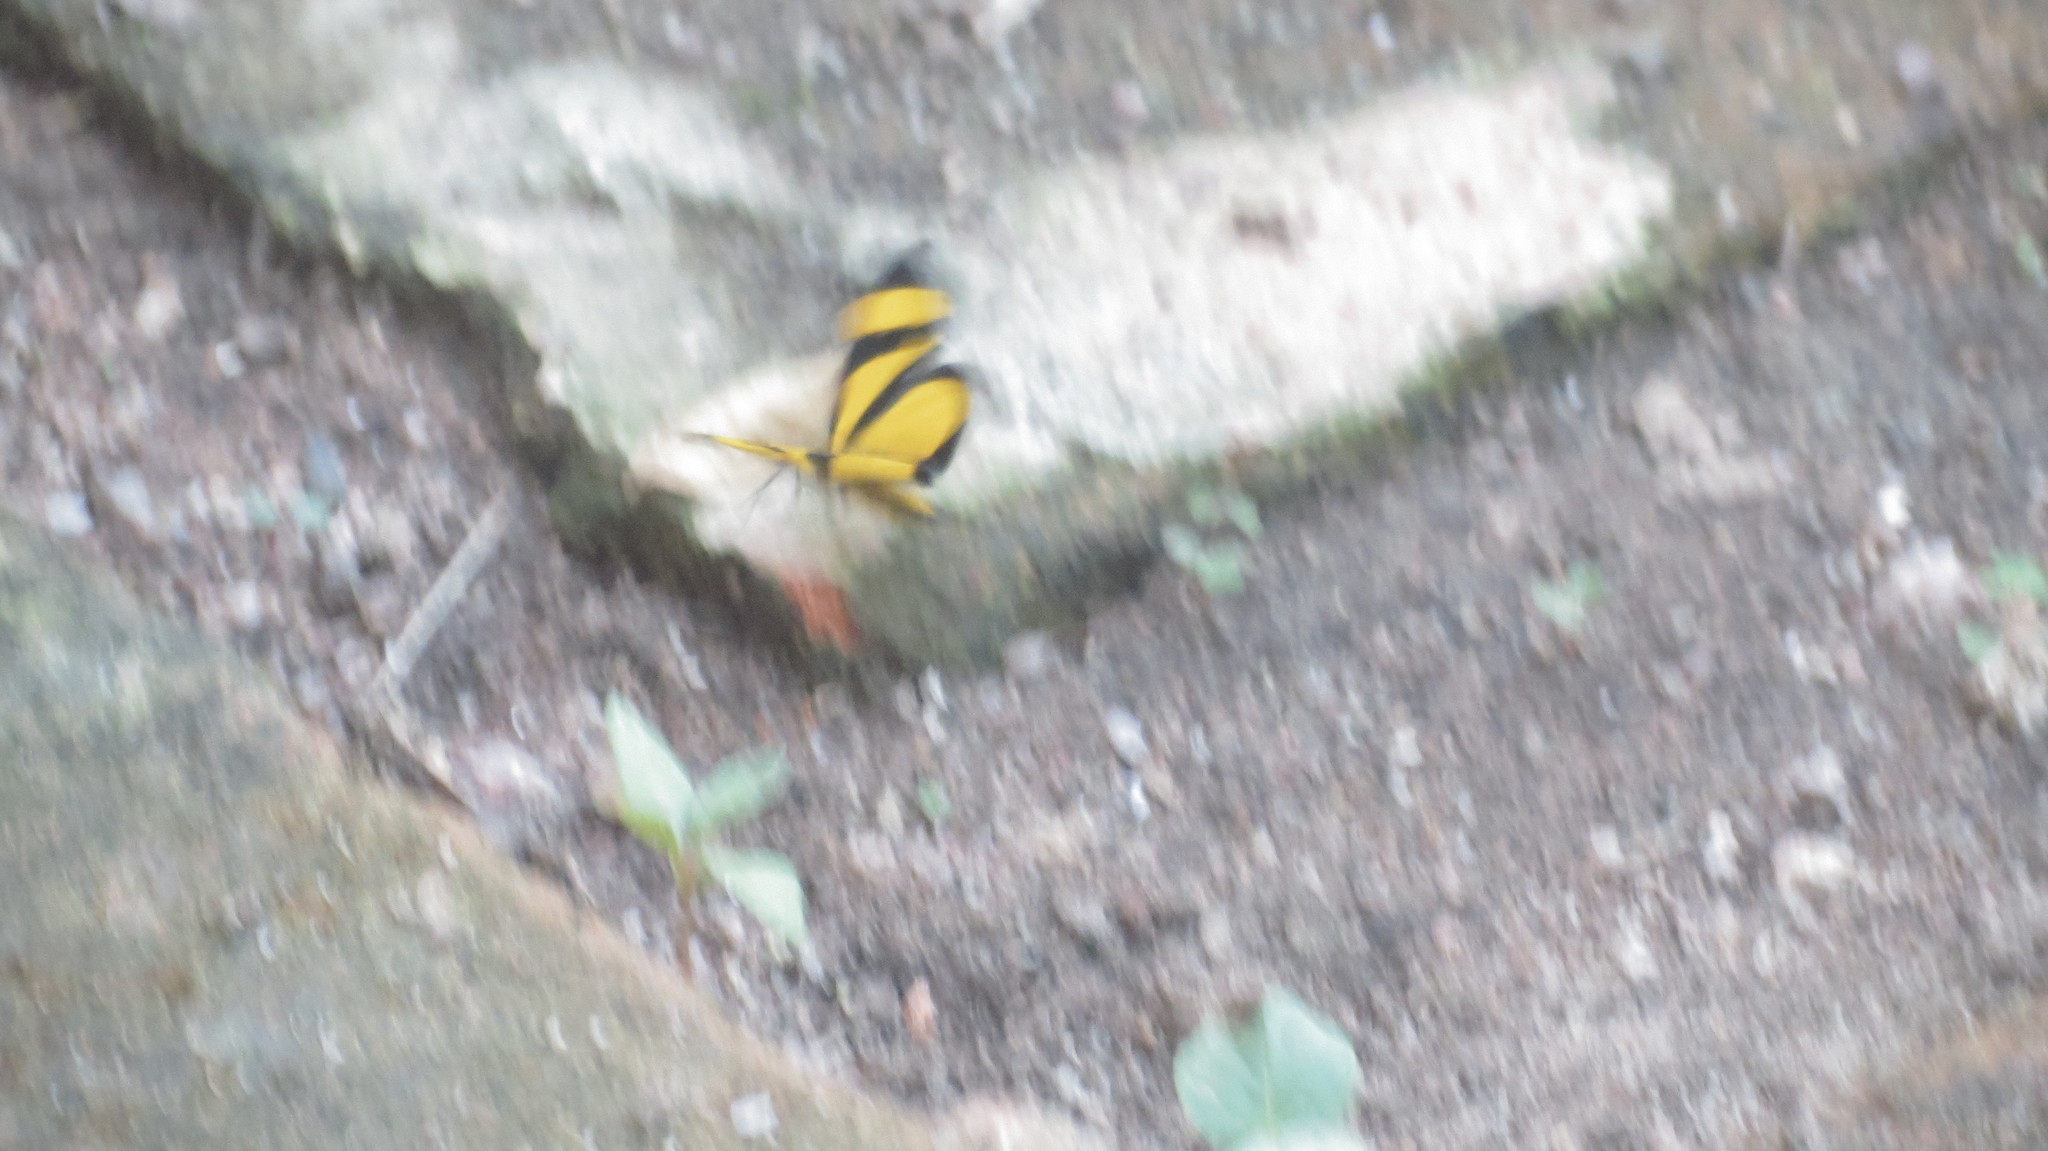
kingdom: Animalia
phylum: Arthropoda
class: Insecta
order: Lepidoptera
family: Geometridae
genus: Smicropus
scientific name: Smicropus laeta
